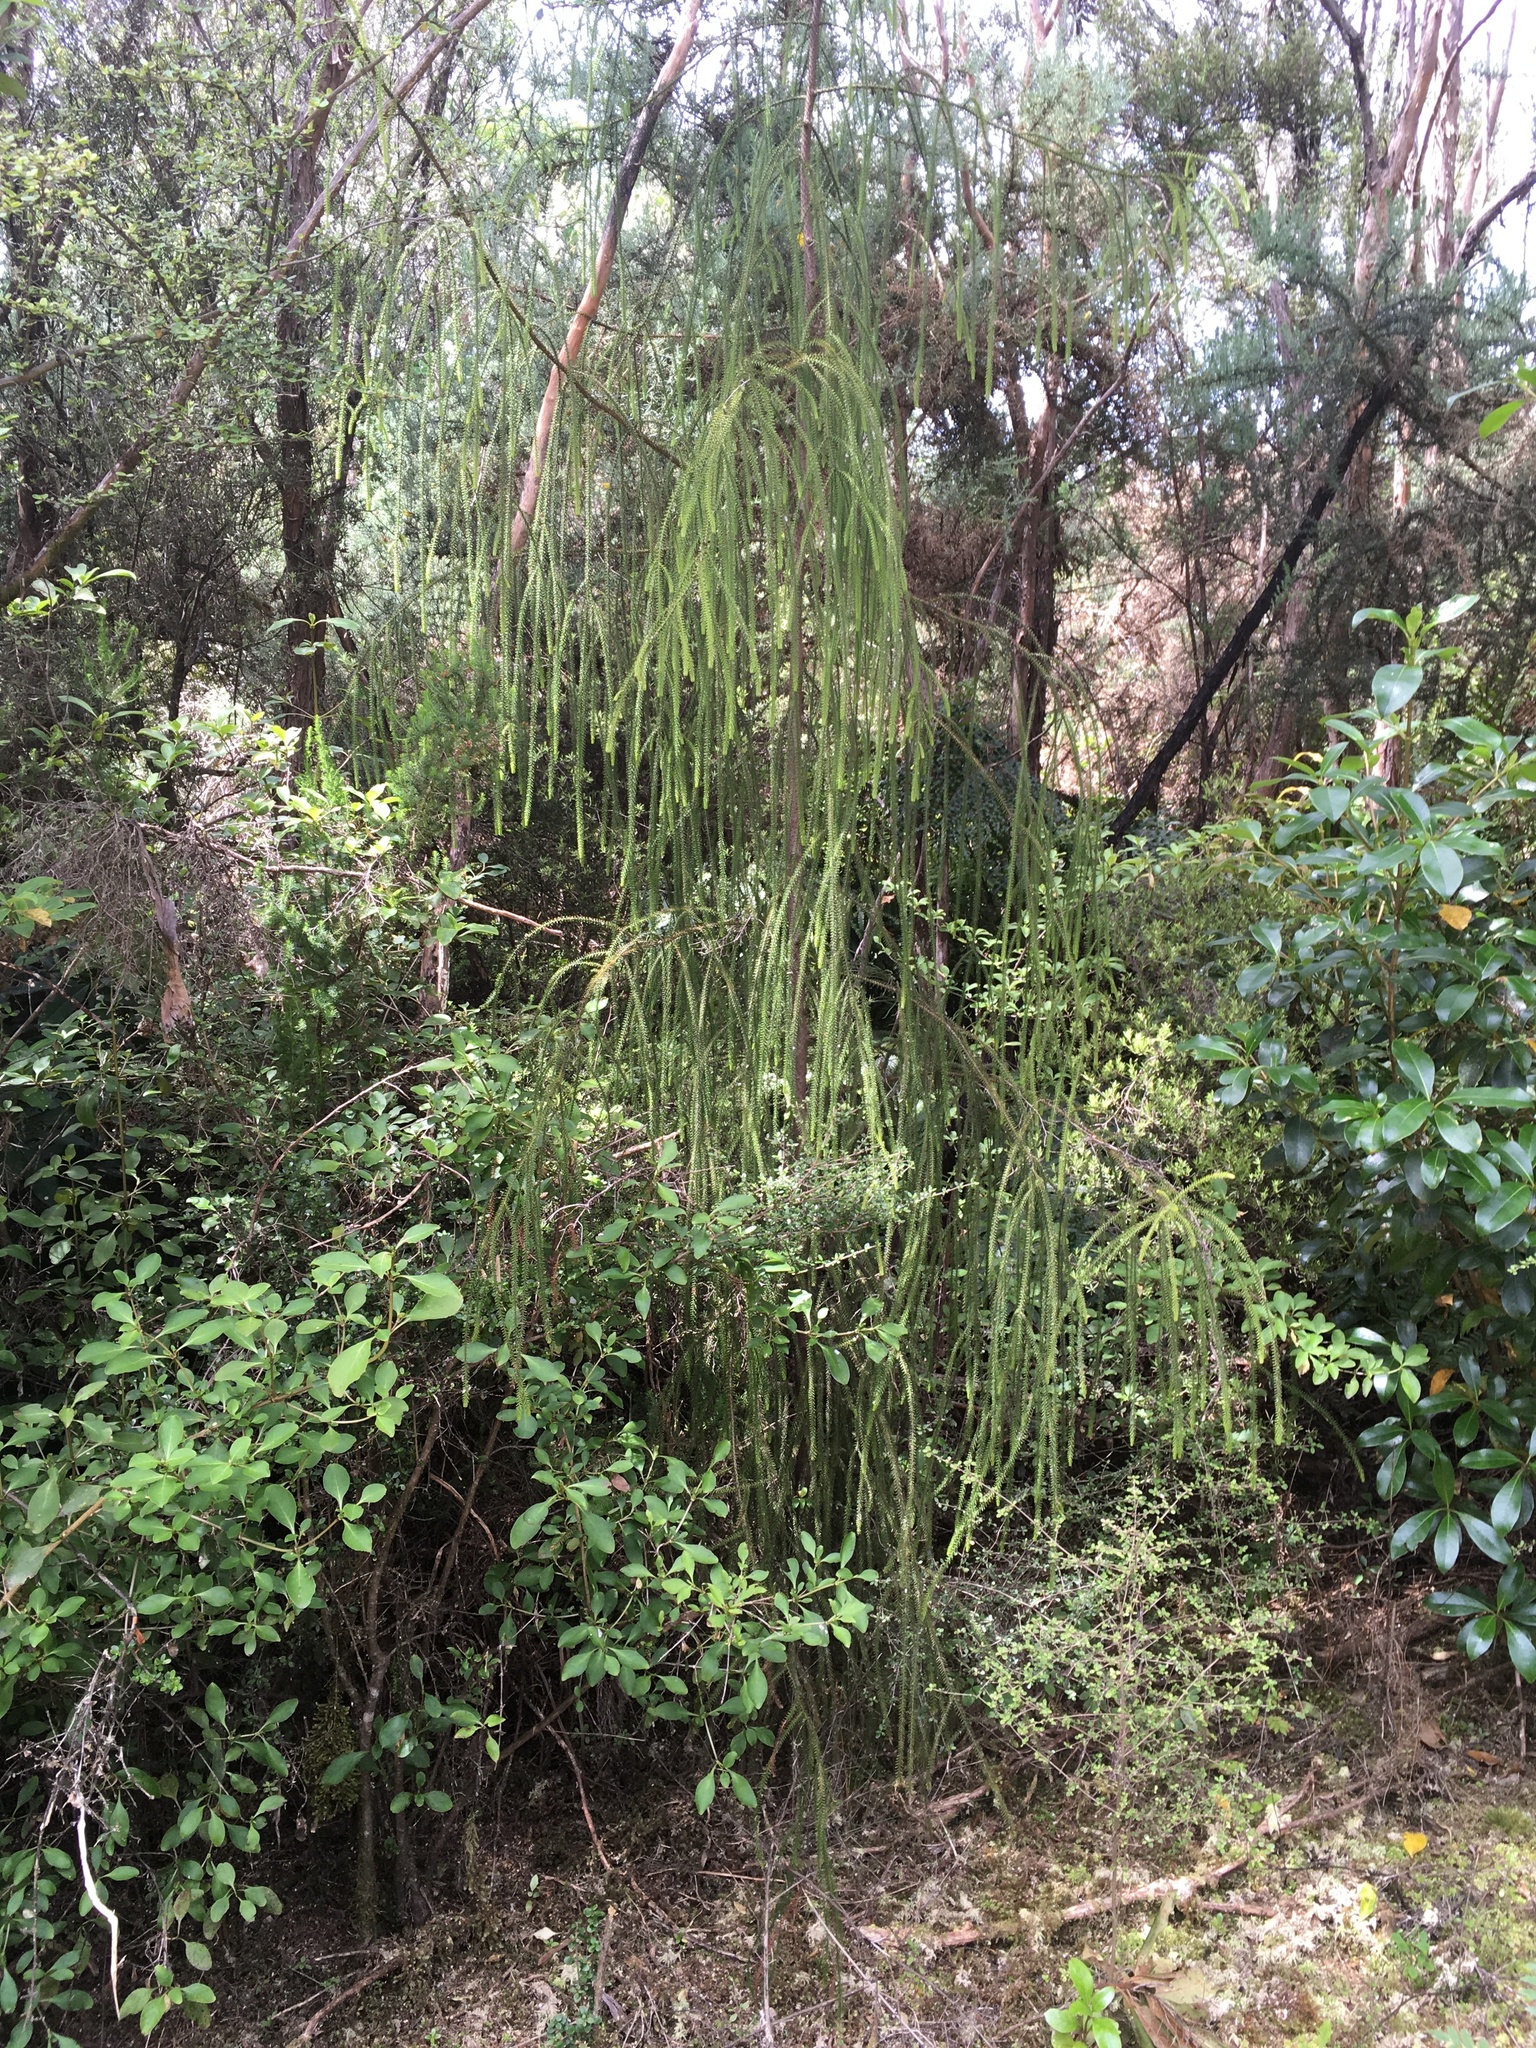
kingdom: Plantae
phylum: Tracheophyta
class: Pinopsida
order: Pinales
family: Podocarpaceae
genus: Dacrydium
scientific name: Dacrydium cupressinum
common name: Red pine
